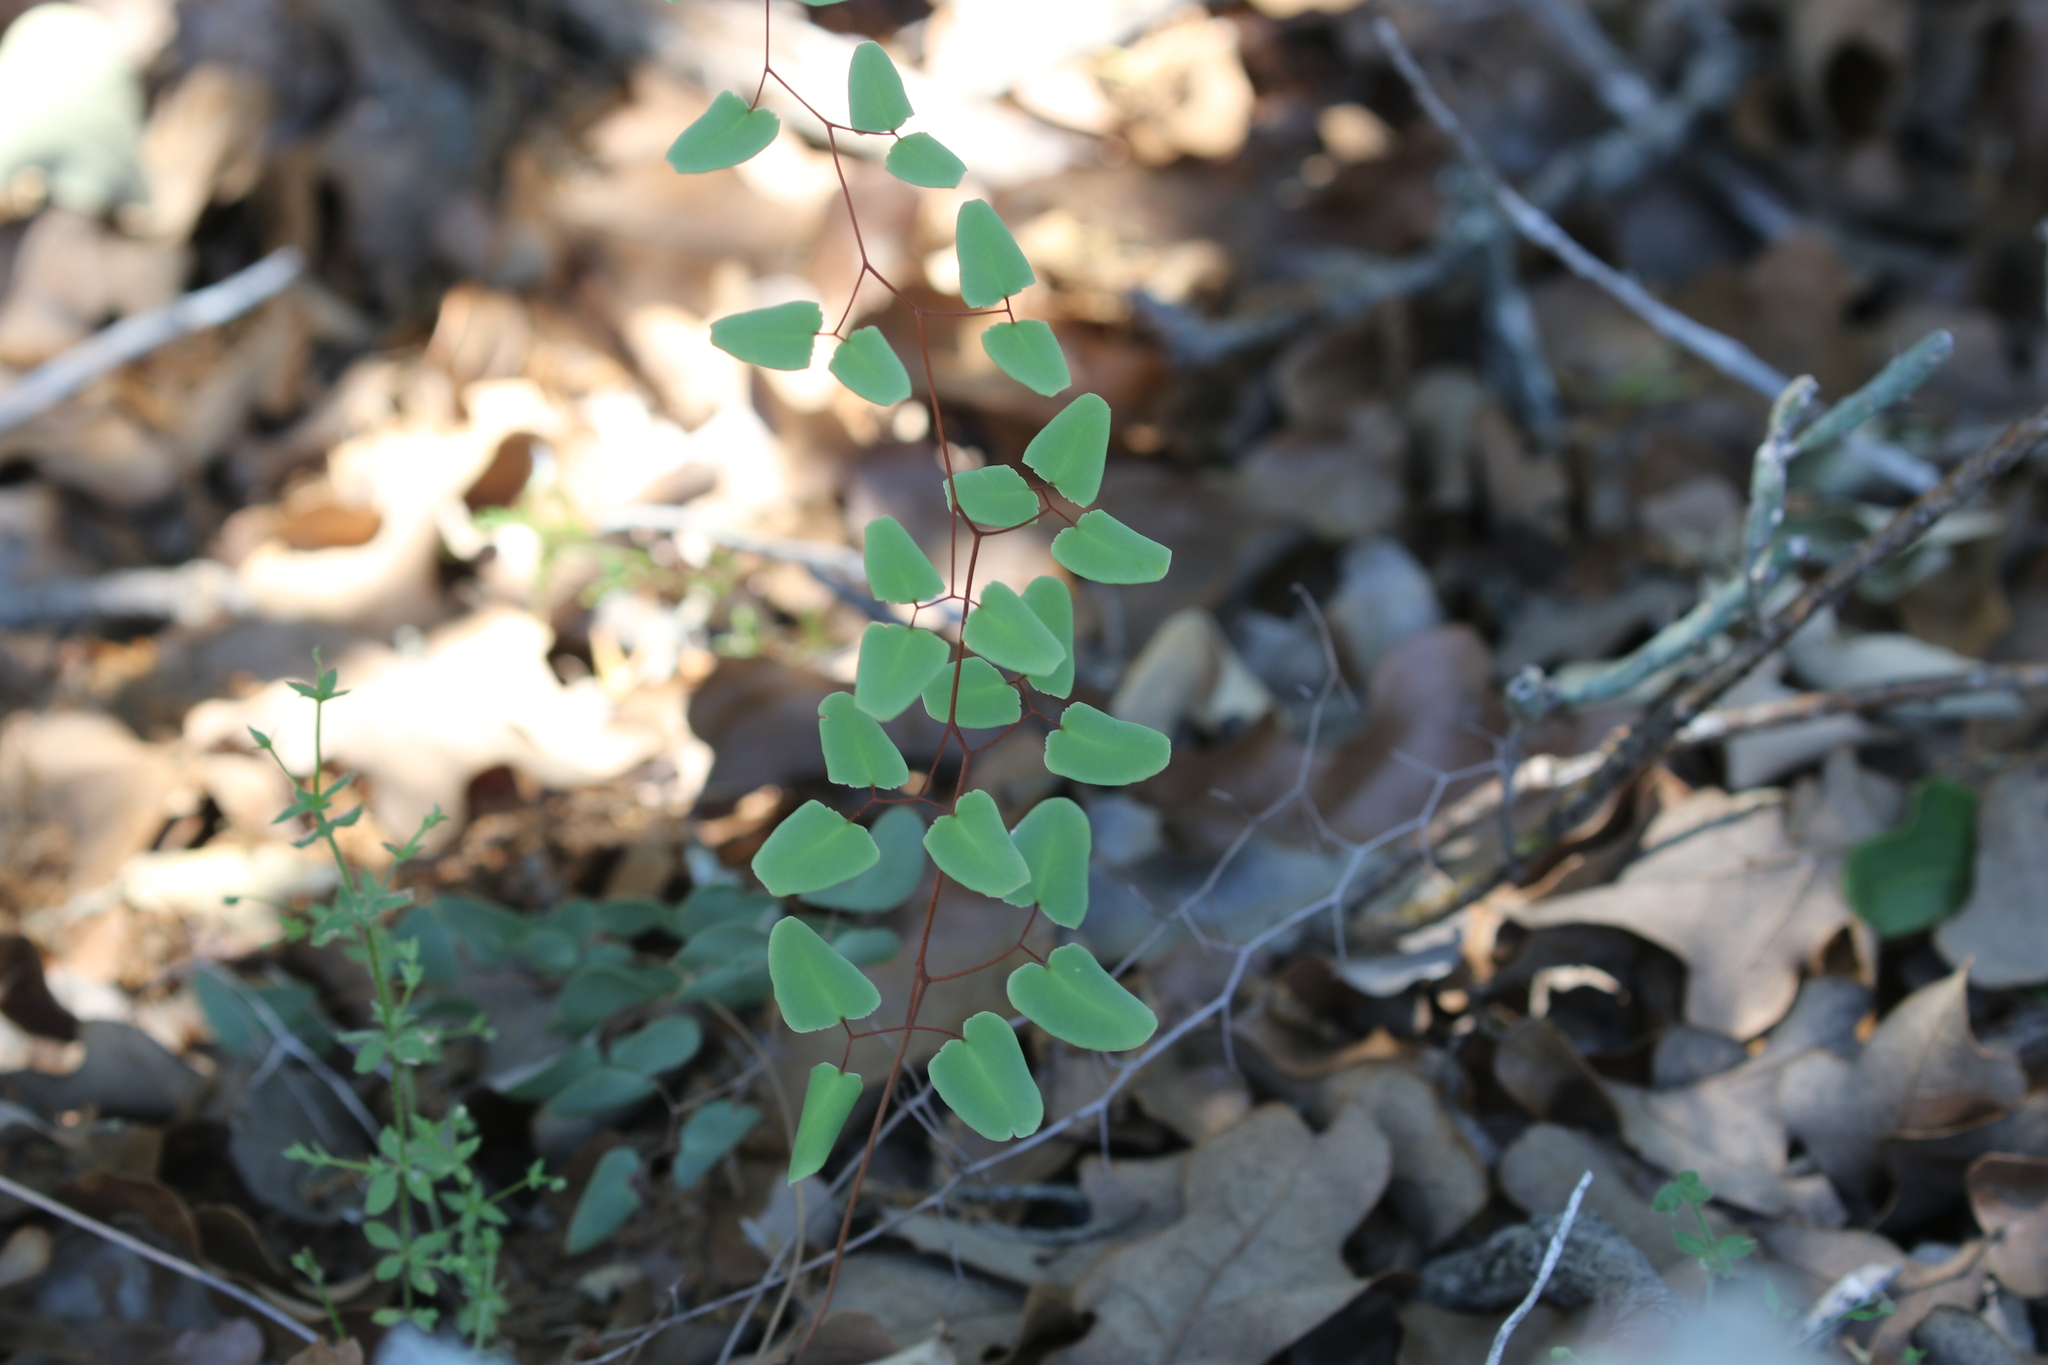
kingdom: Plantae
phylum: Tracheophyta
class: Polypodiopsida
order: Polypodiales
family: Pteridaceae
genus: Pellaea
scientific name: Pellaea ovata
